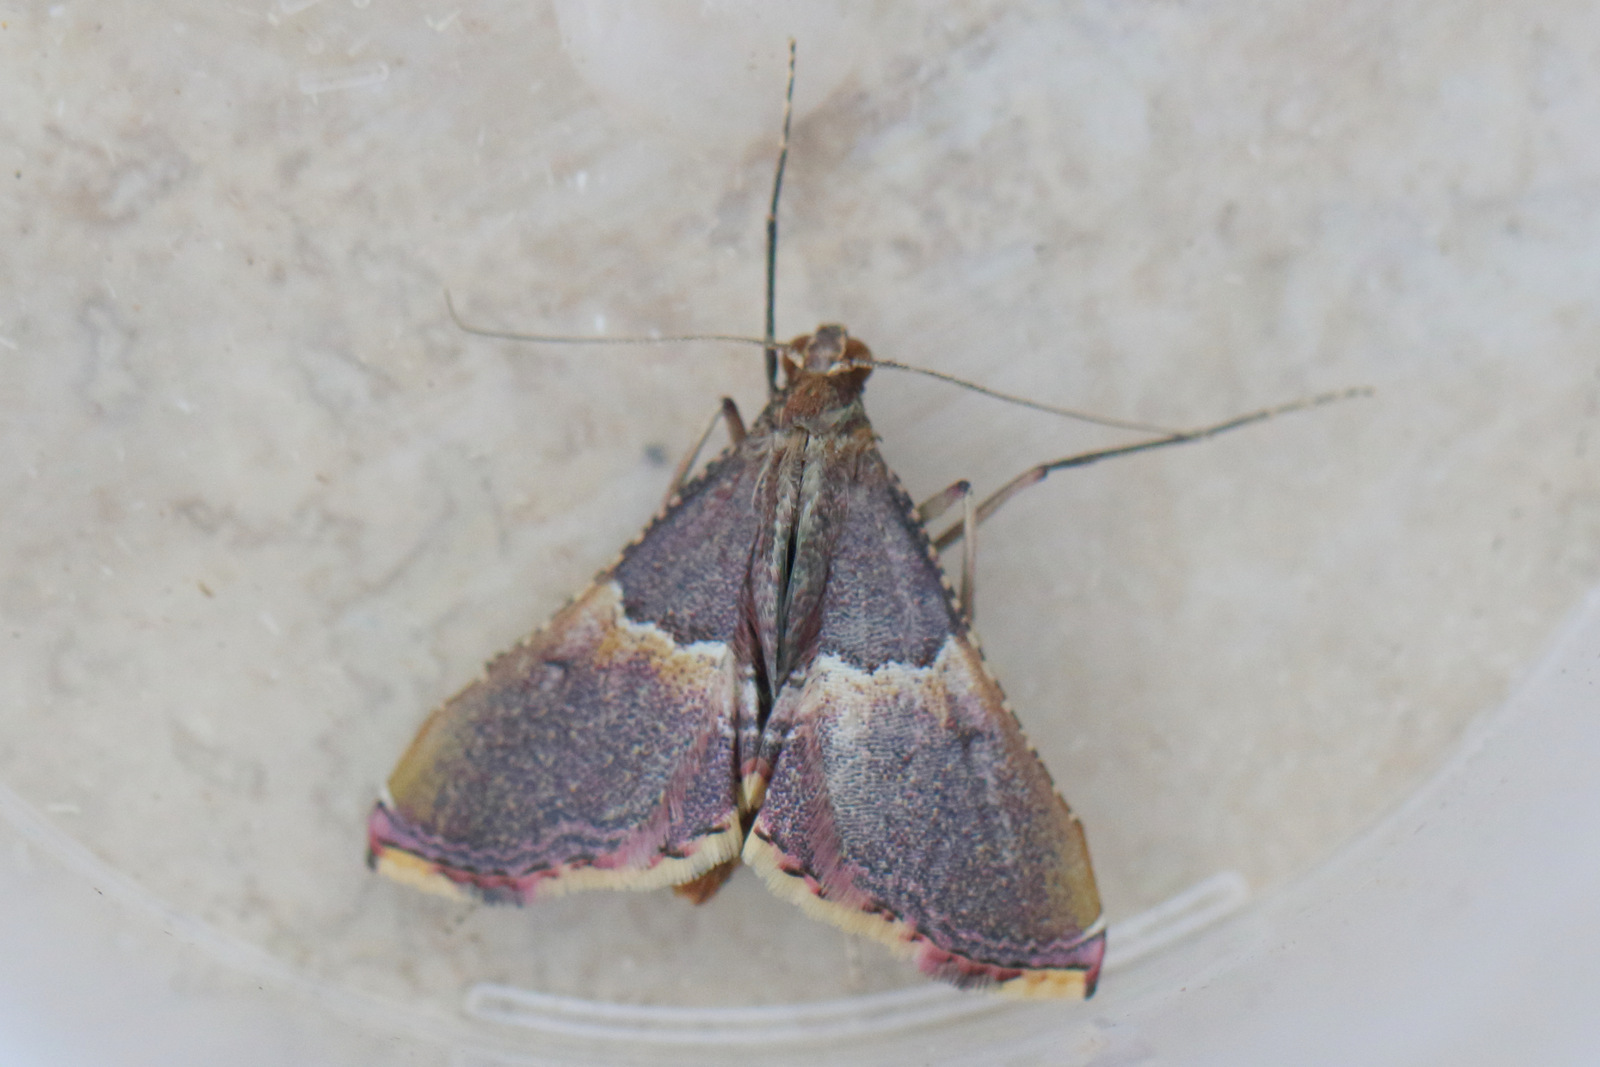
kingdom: Animalia
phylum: Arthropoda
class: Insecta
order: Lepidoptera
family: Pyralidae
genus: Endotricha
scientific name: Endotricha mesenterialis
